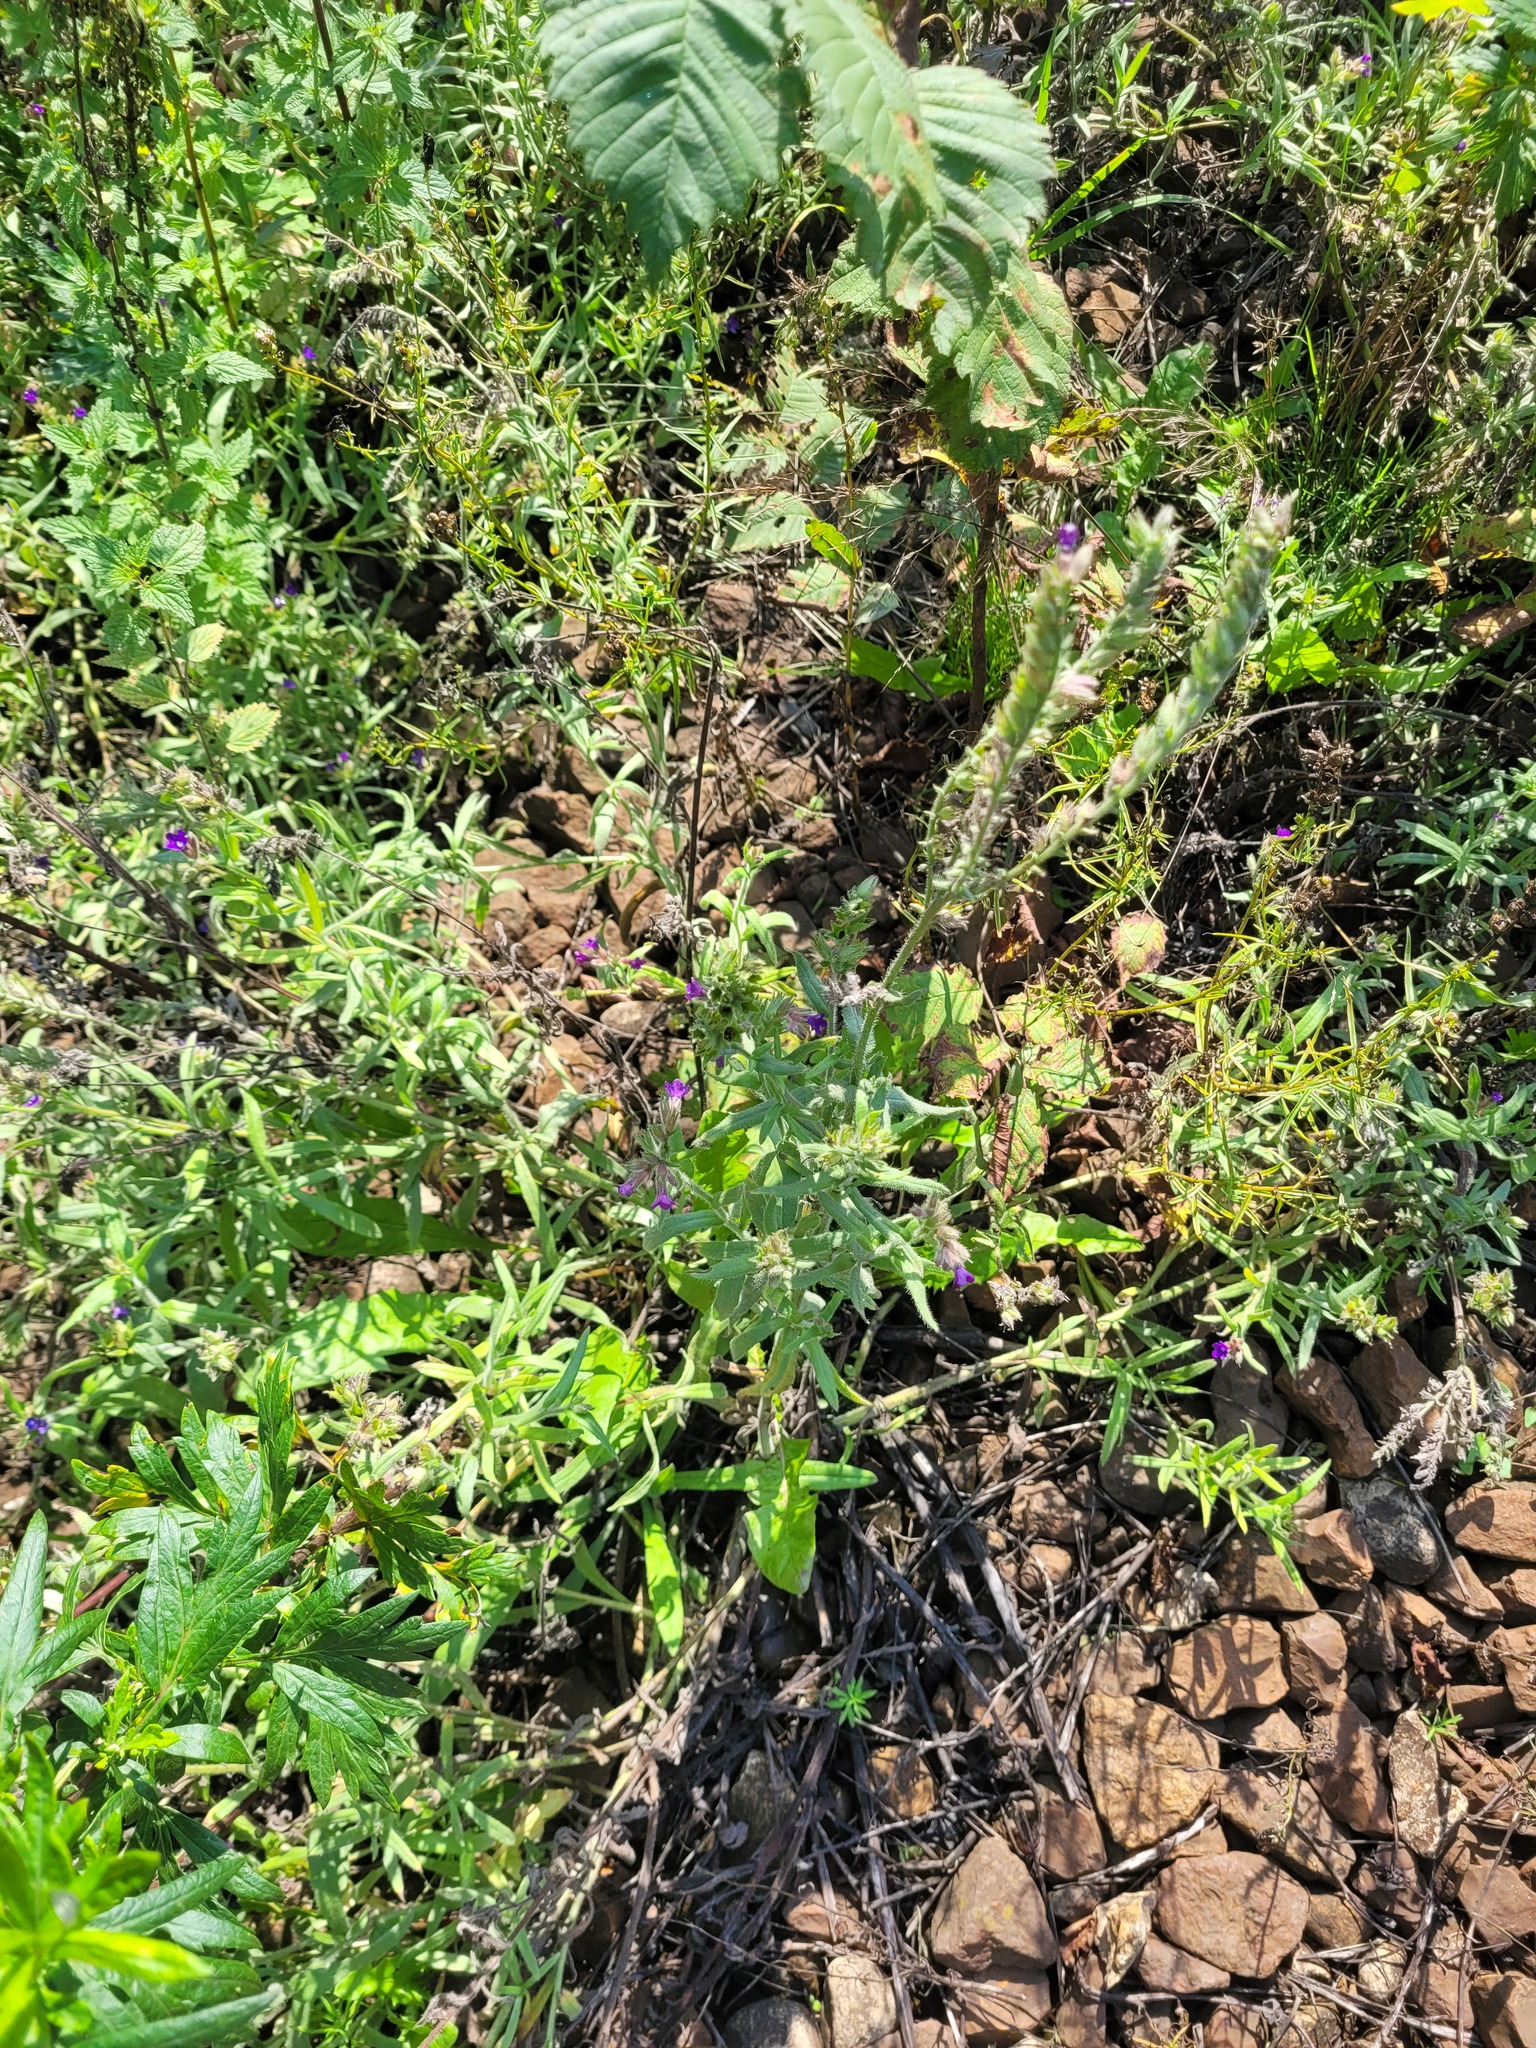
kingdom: Plantae
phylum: Tracheophyta
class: Magnoliopsida
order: Boraginales
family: Boraginaceae
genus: Anchusa
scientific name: Anchusa officinalis
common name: Alkanet
